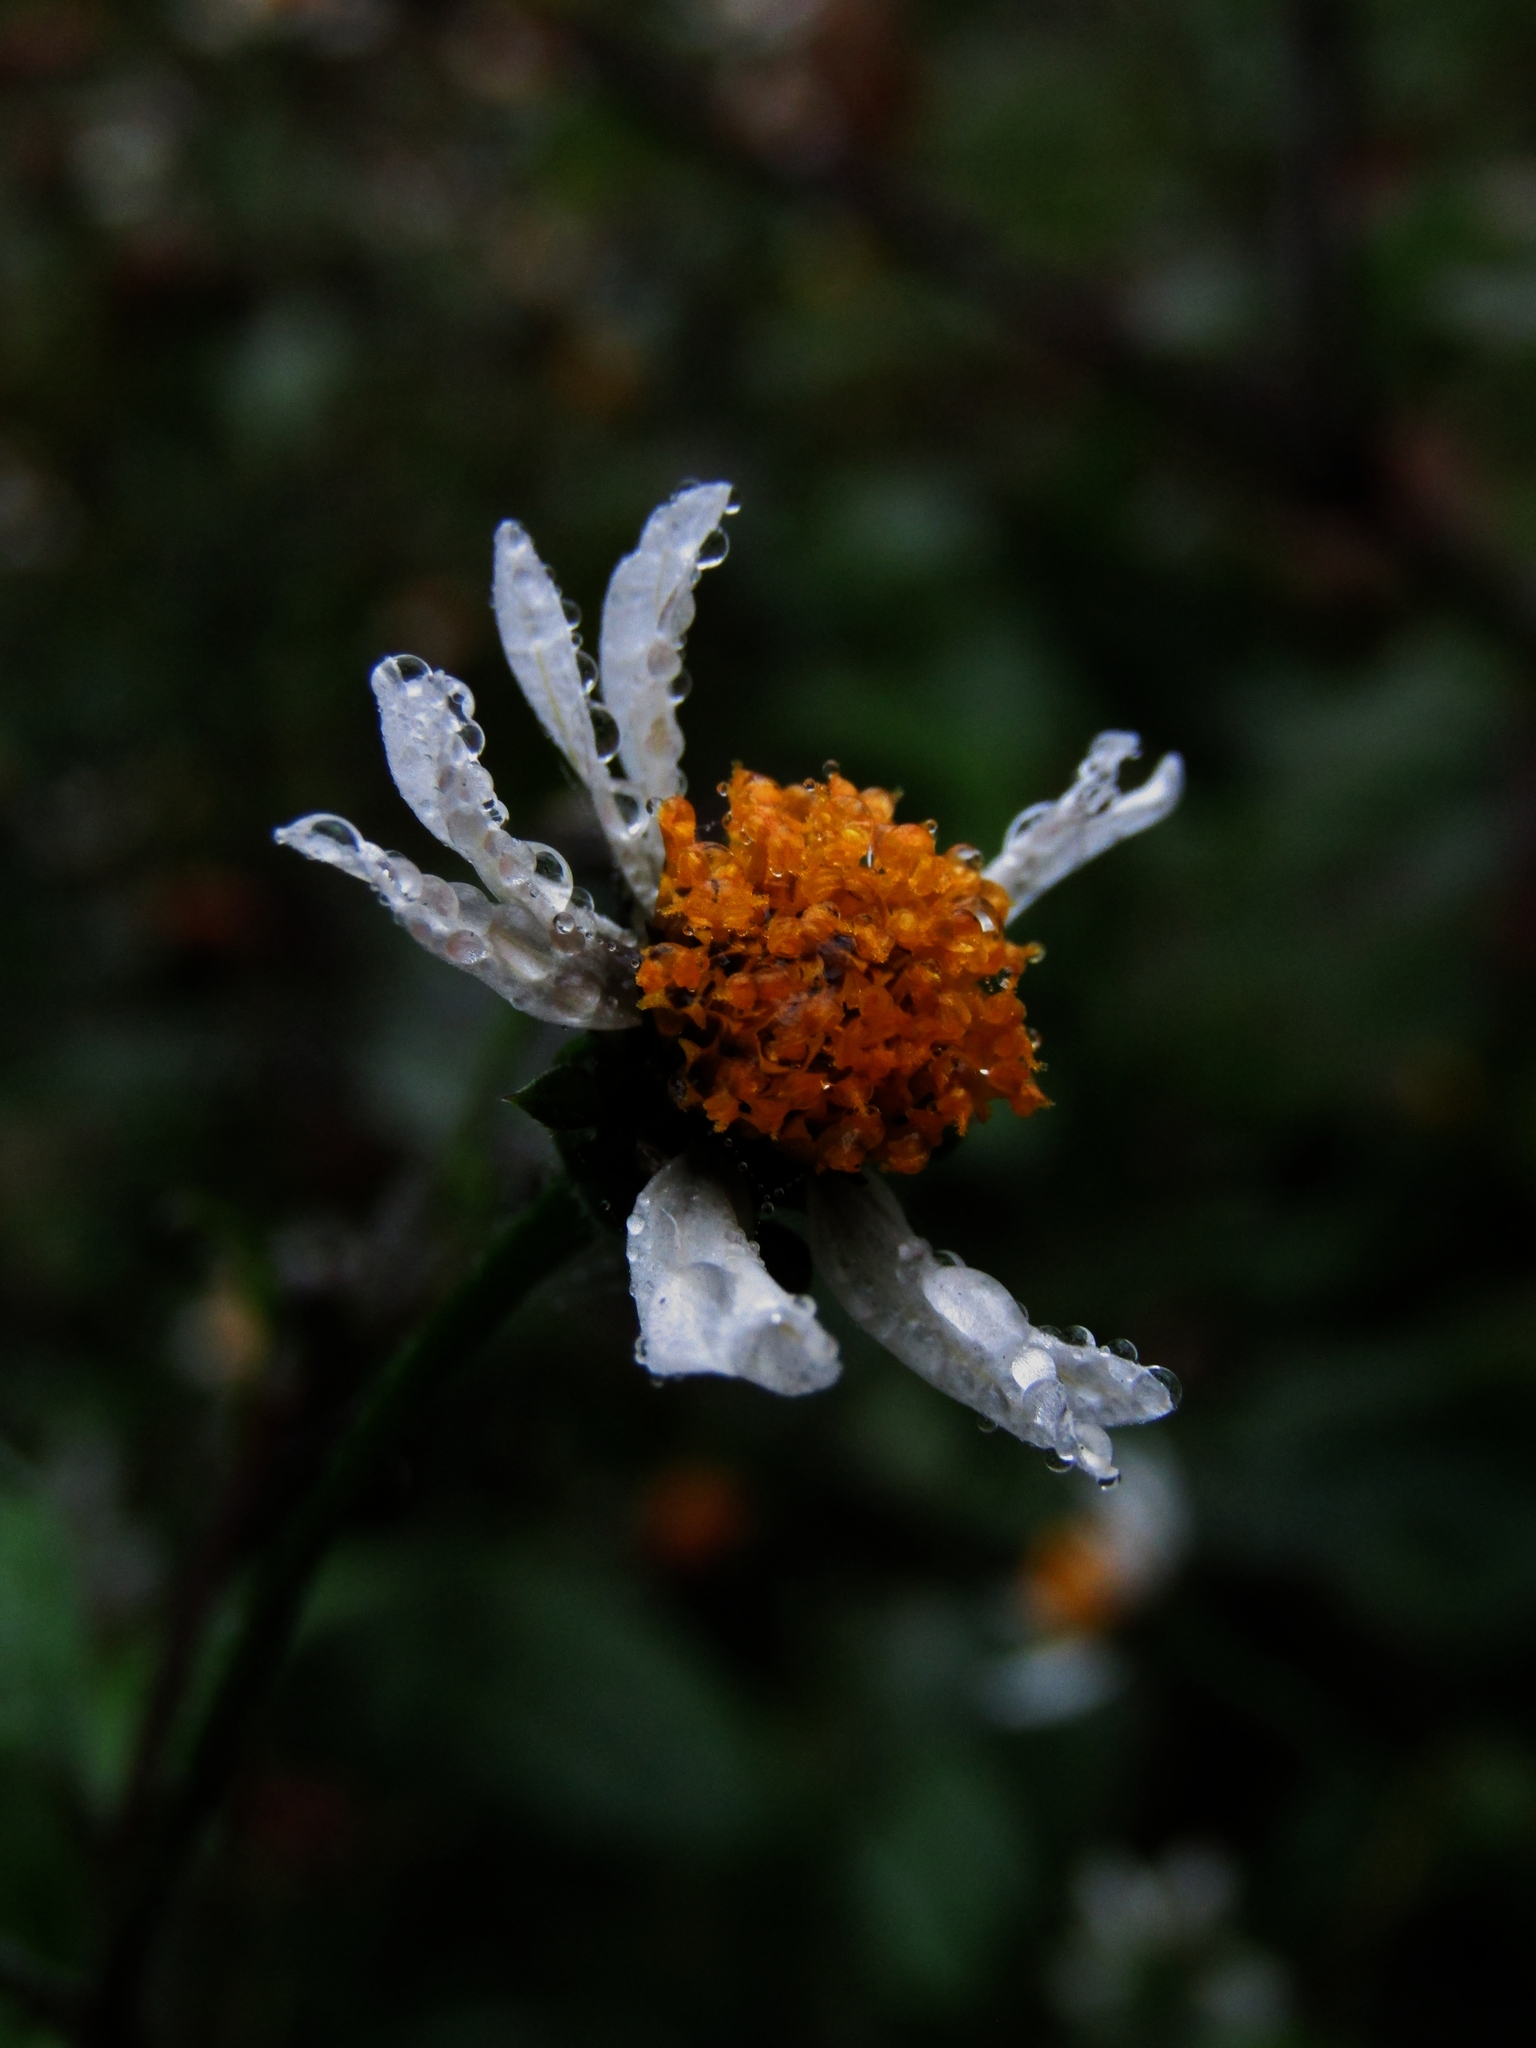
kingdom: Plantae
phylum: Tracheophyta
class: Magnoliopsida
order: Asterales
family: Asteraceae
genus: Bidens
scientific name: Bidens pilosa
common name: Black-jack
